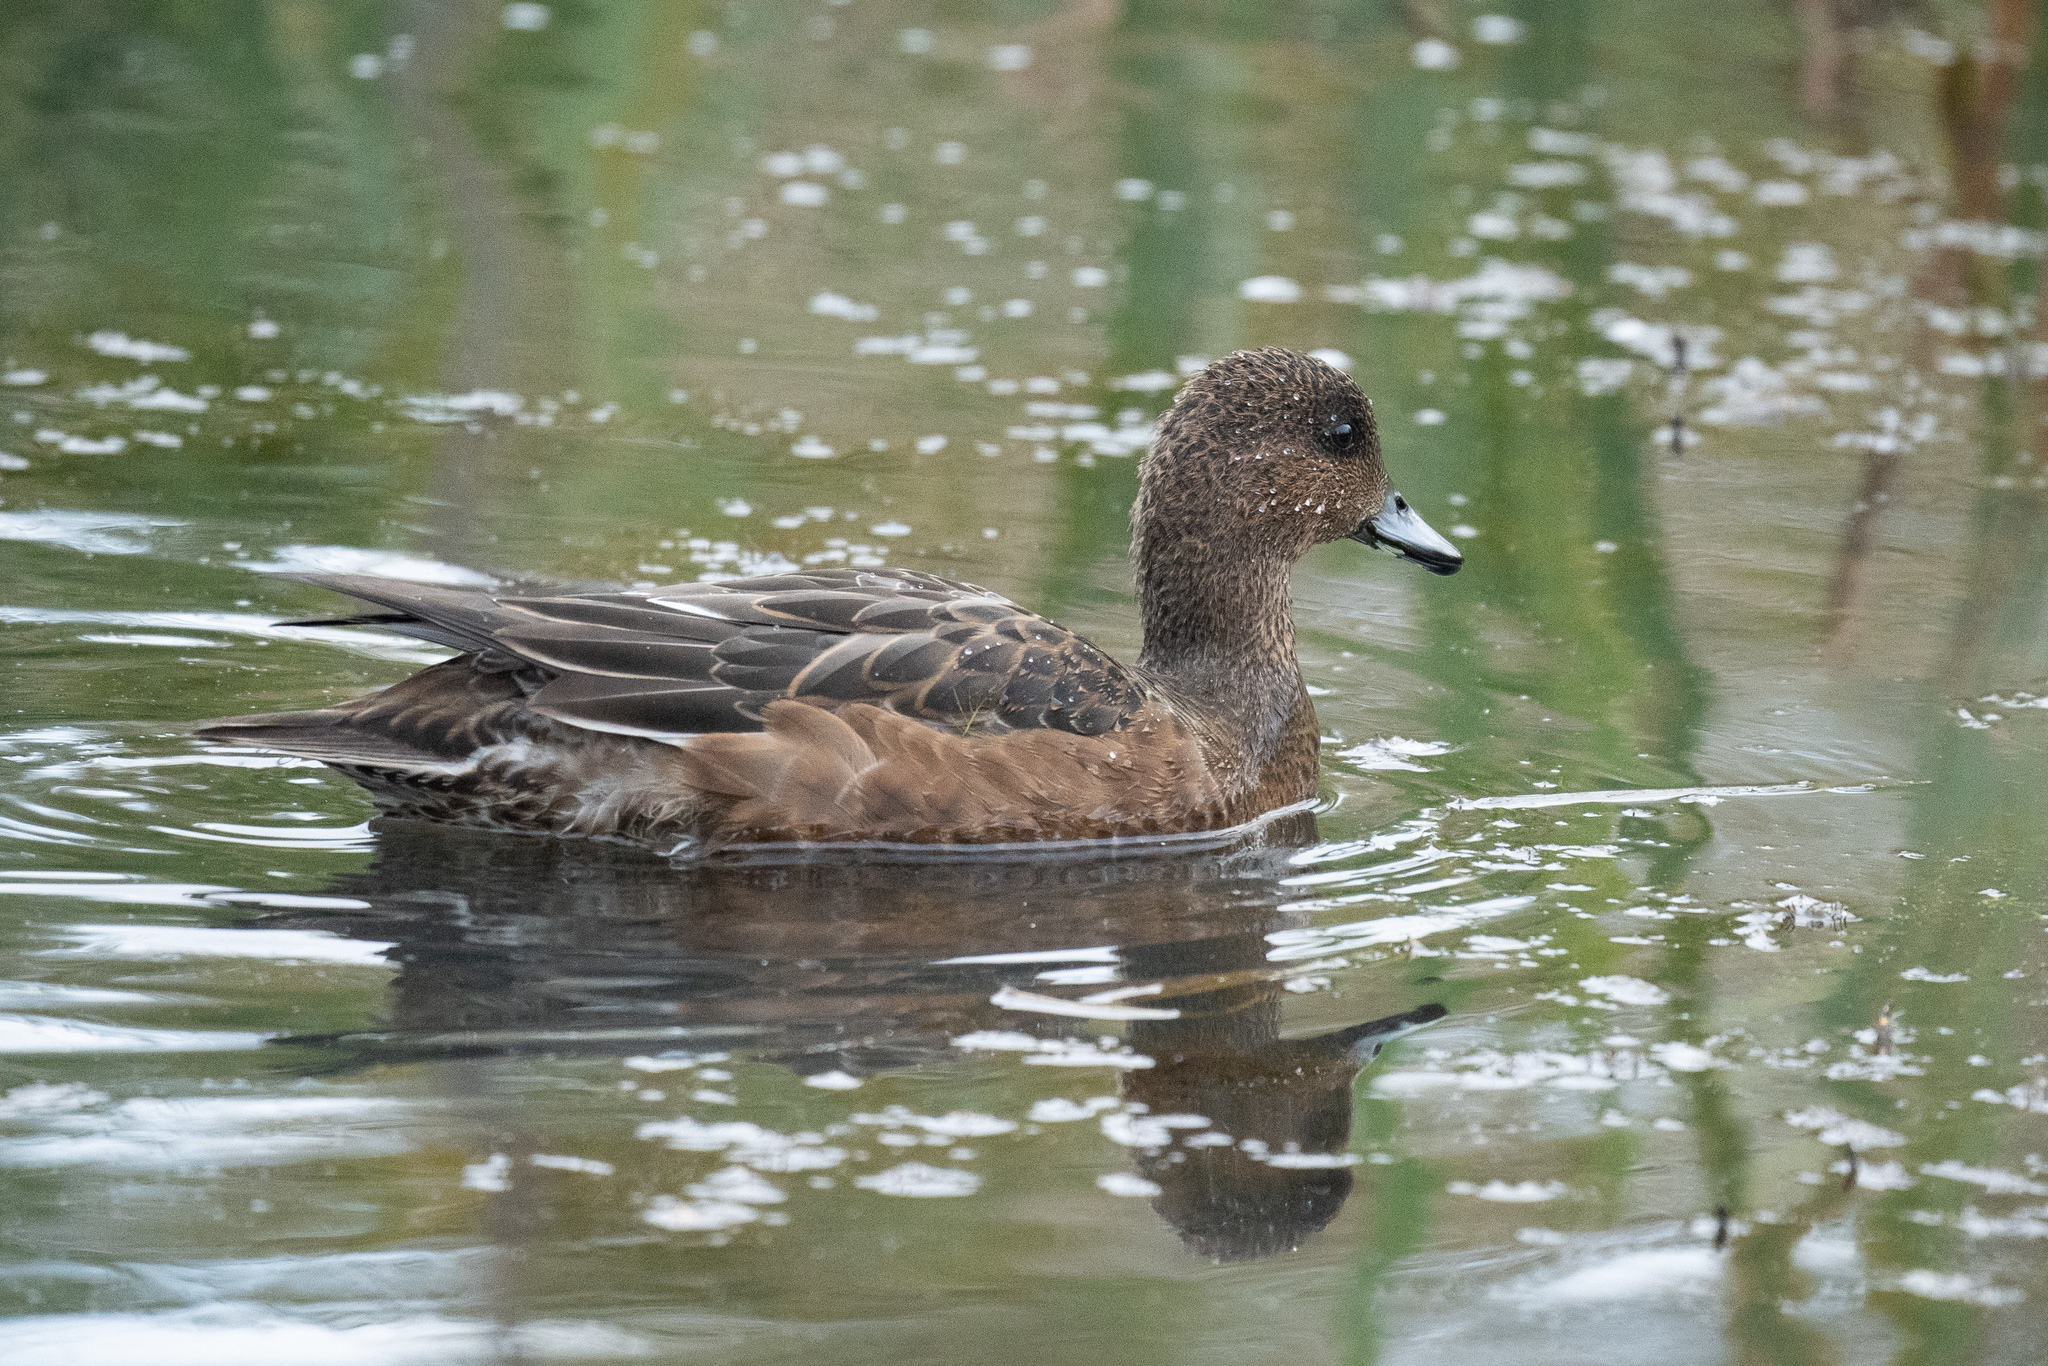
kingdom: Animalia
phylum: Chordata
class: Aves
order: Anseriformes
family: Anatidae
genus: Mareca
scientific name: Mareca penelope
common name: Eurasian wigeon
